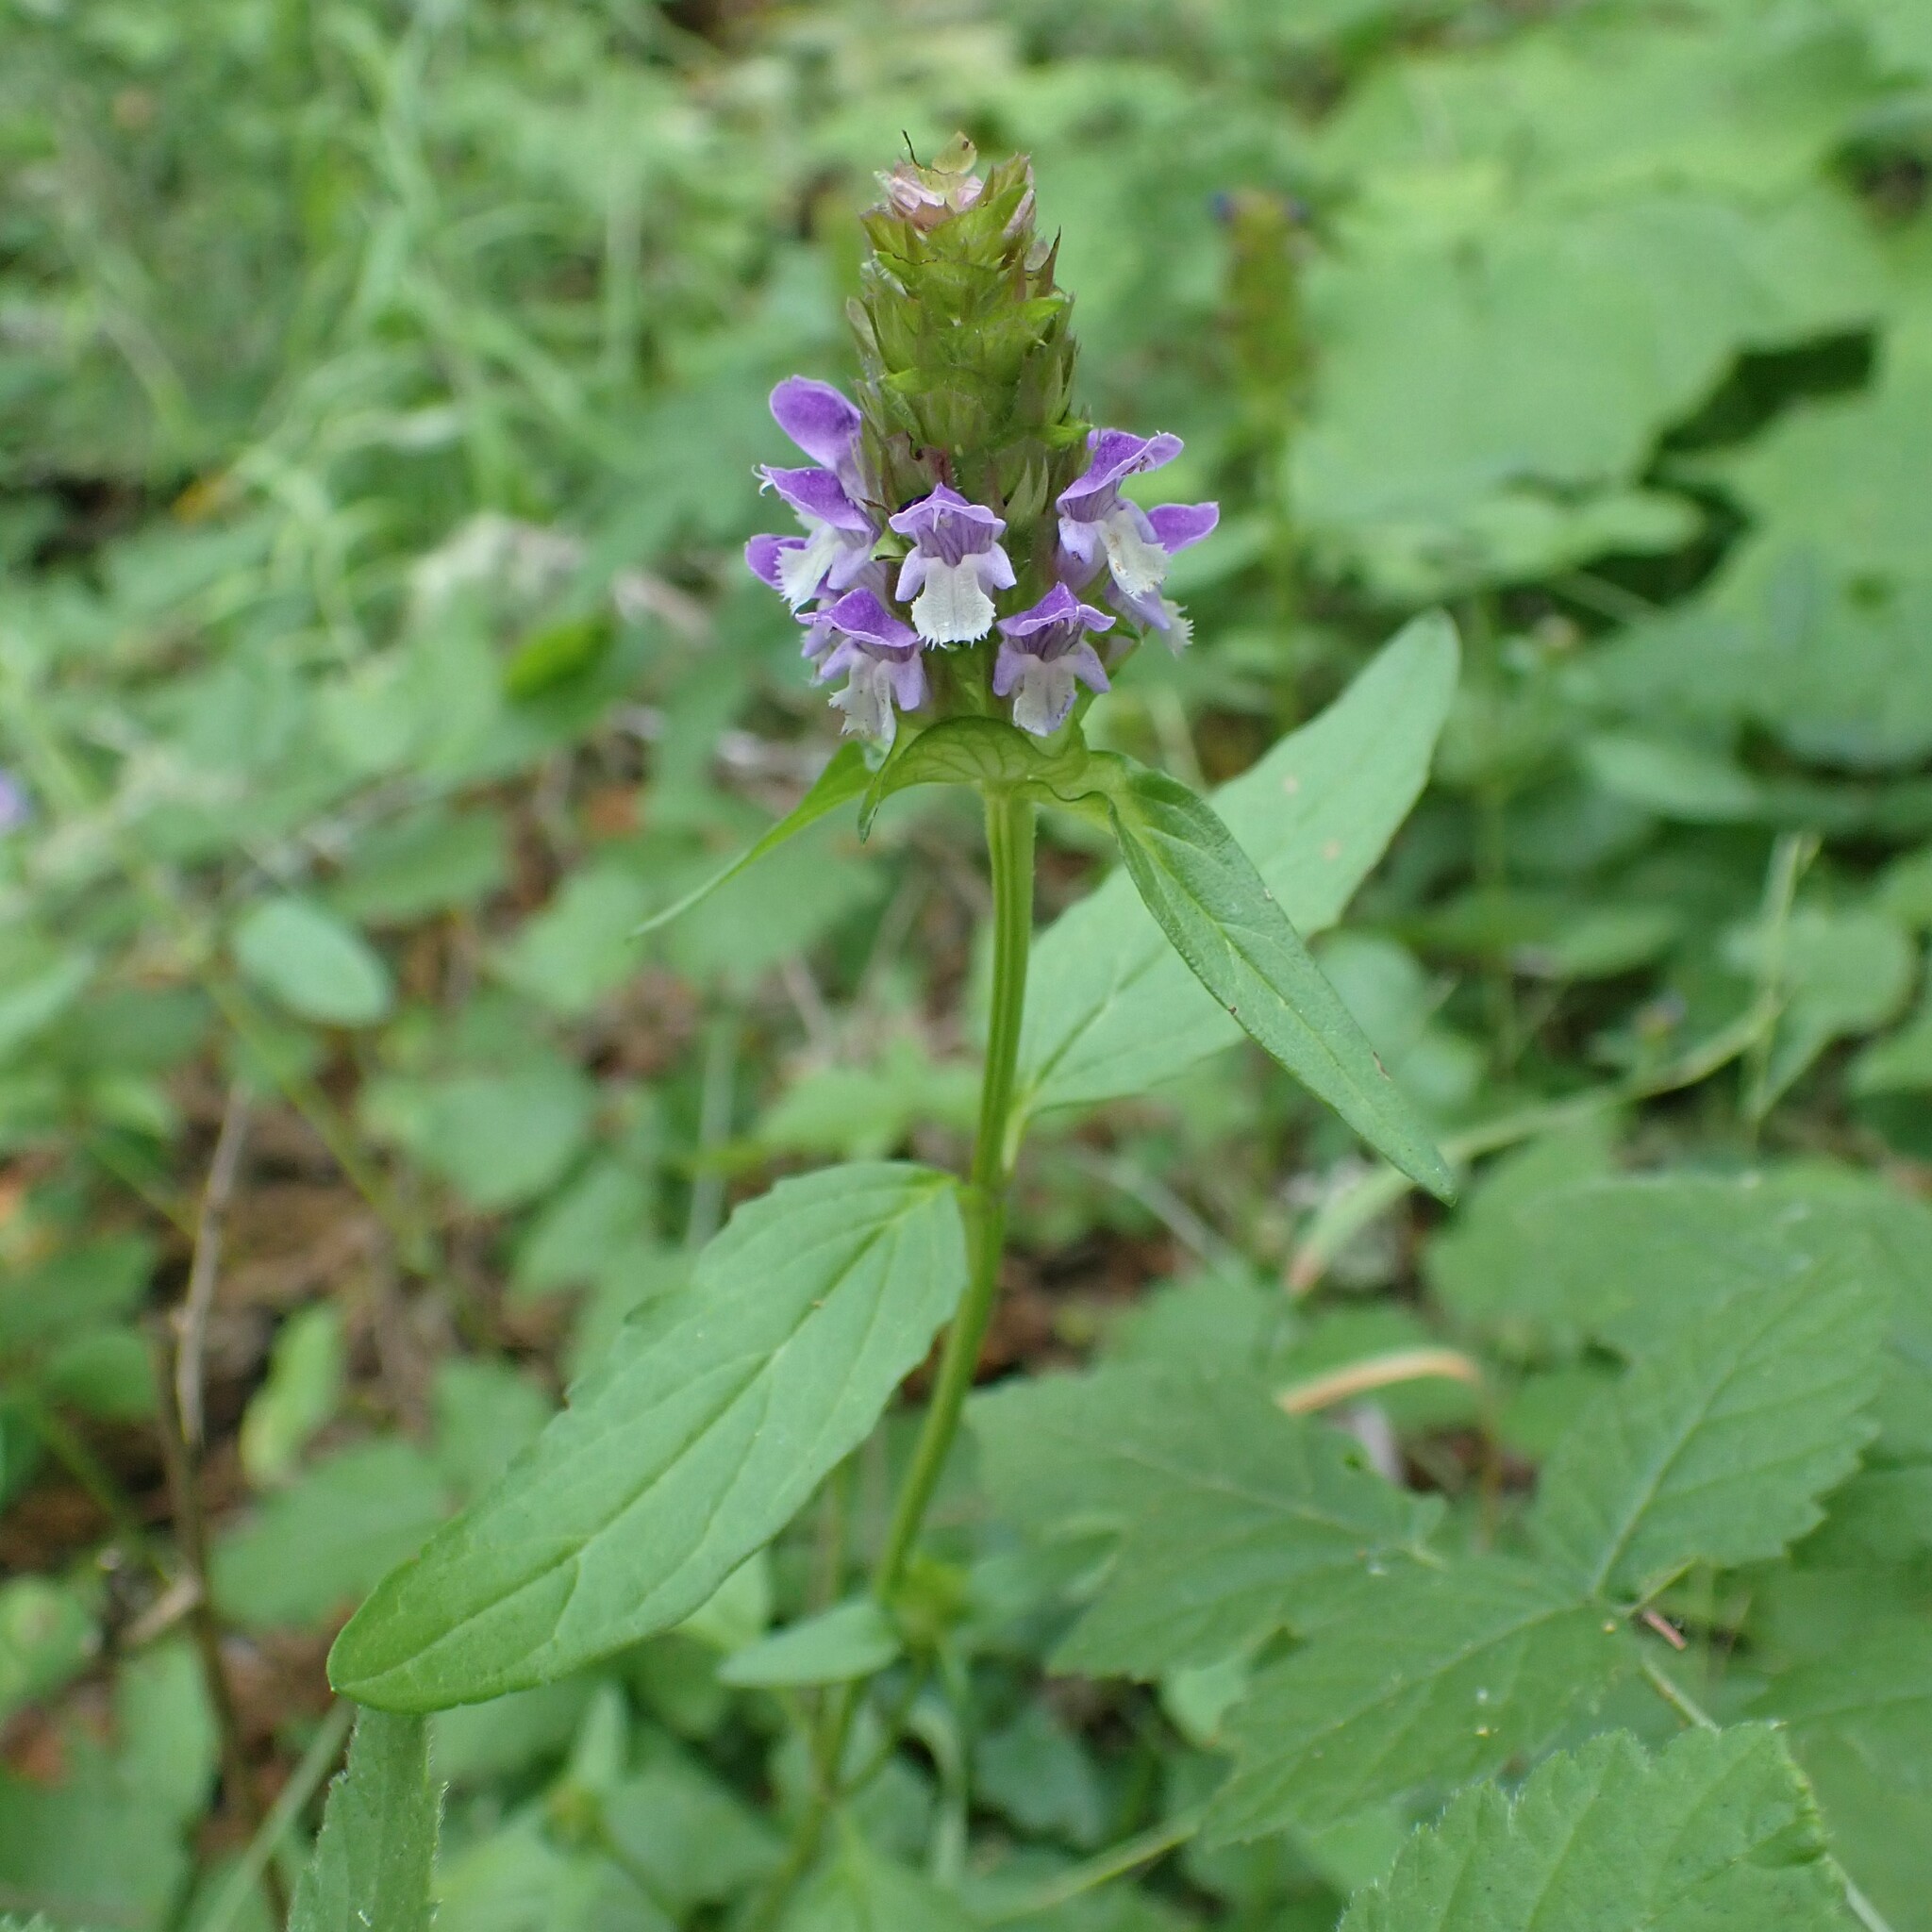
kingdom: Plantae
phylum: Tracheophyta
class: Magnoliopsida
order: Lamiales
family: Lamiaceae
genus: Prunella
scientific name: Prunella vulgaris
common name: Heal-all
